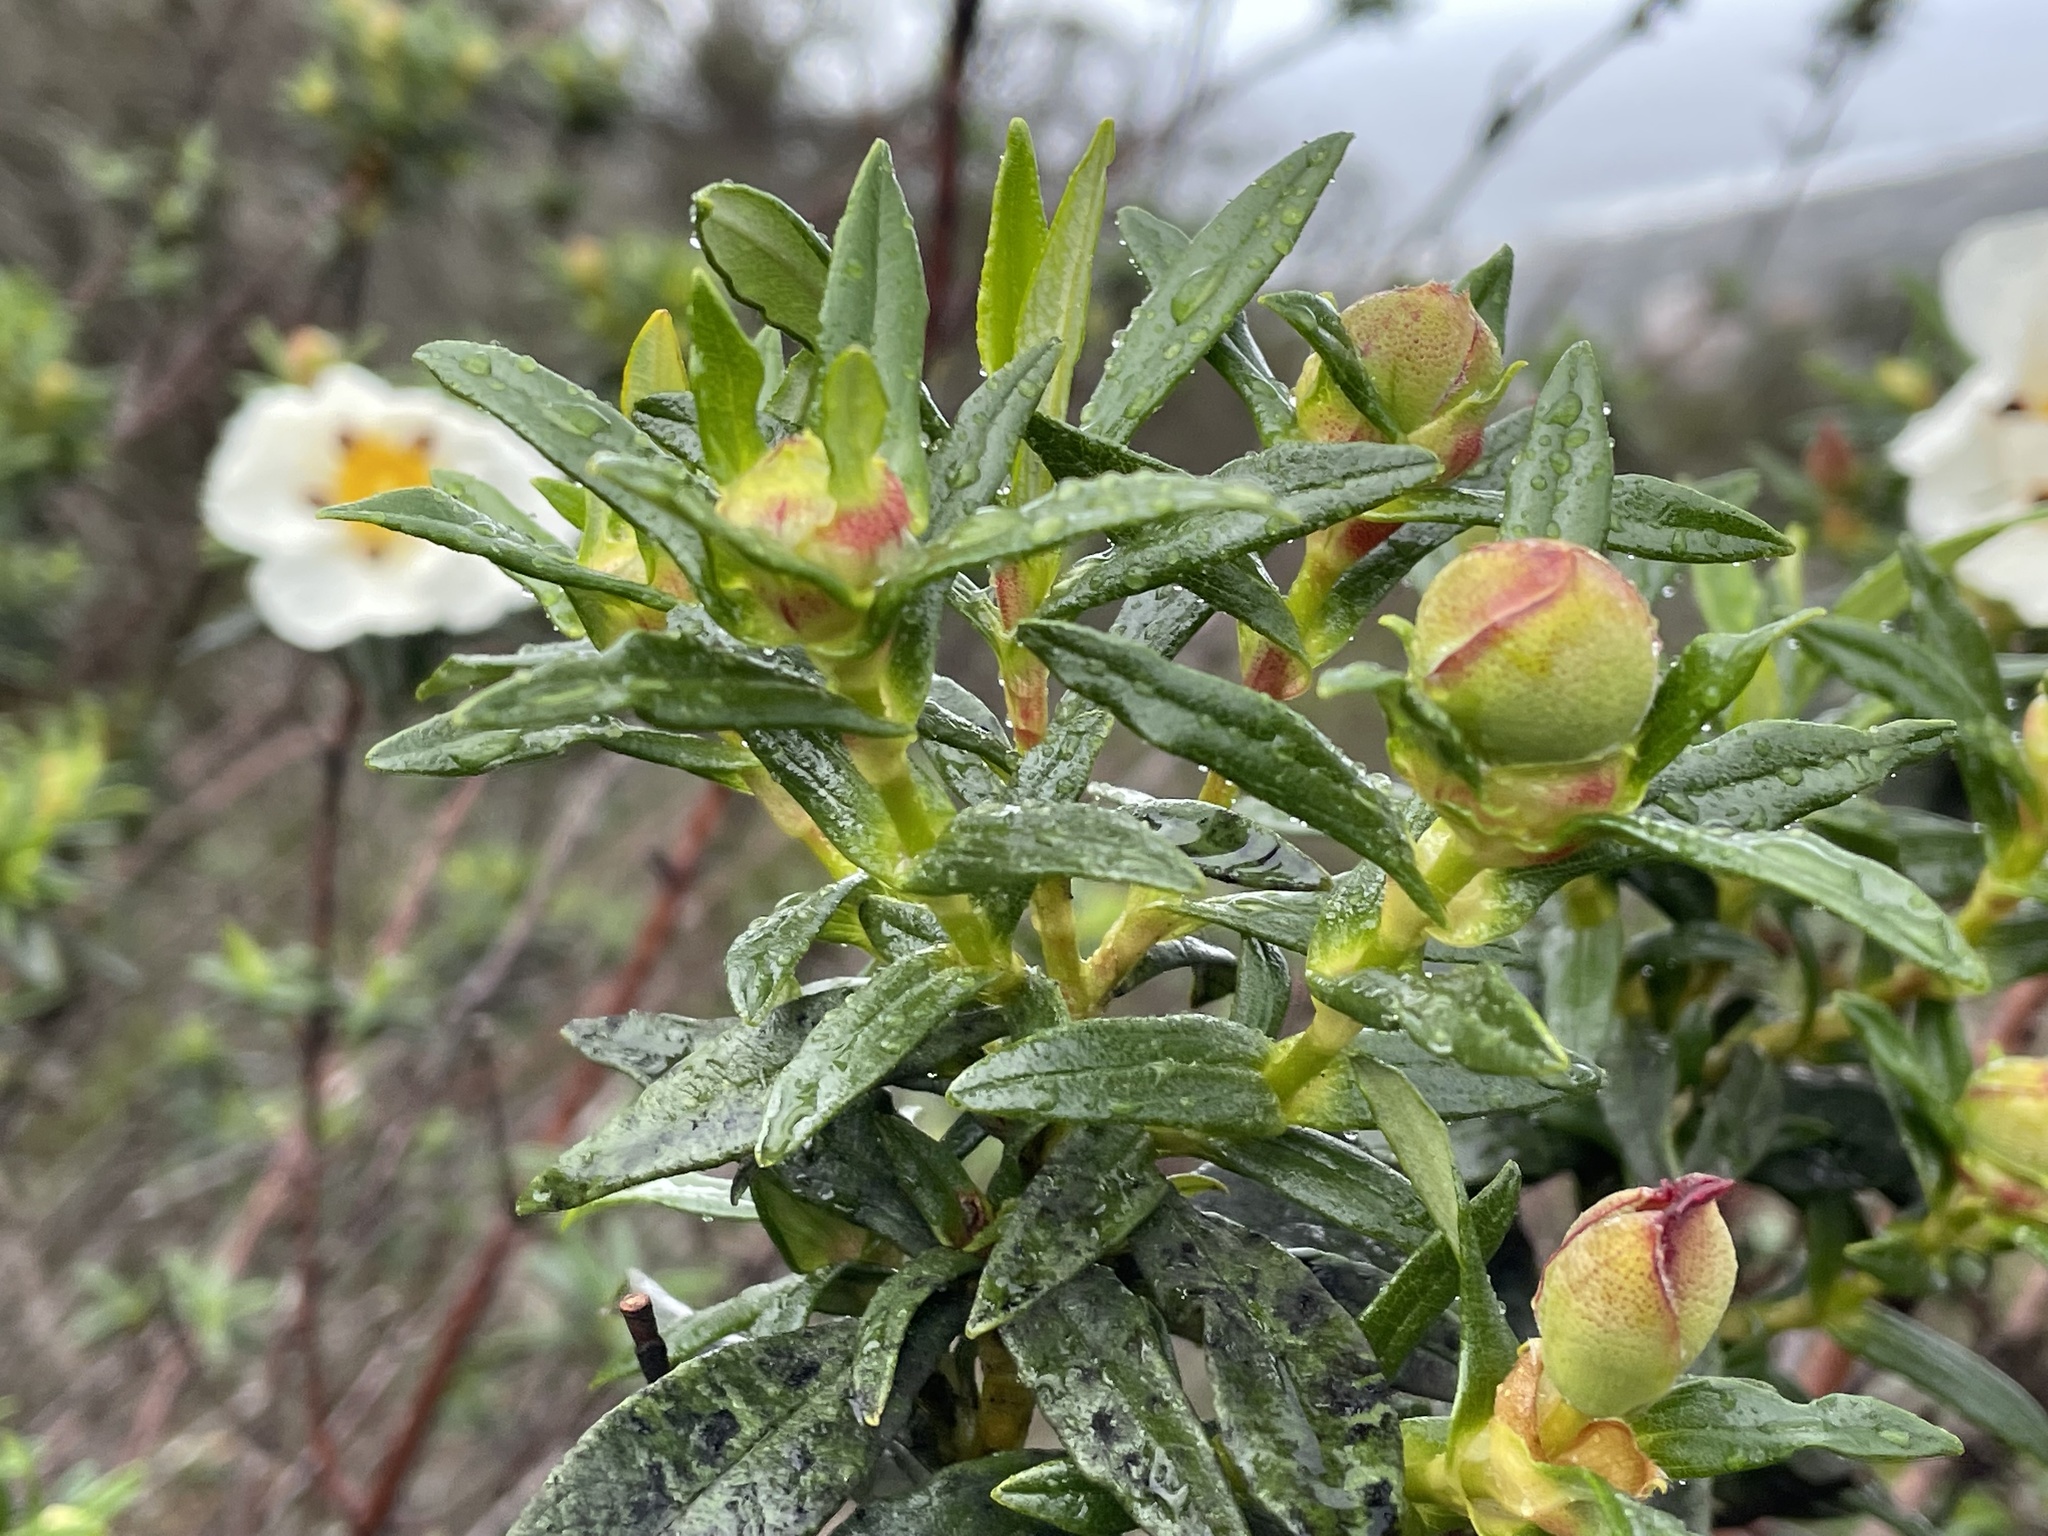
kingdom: Plantae
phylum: Tracheophyta
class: Magnoliopsida
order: Malvales
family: Cistaceae
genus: Cistus
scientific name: Cistus ladanifer
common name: Common gum cistus
